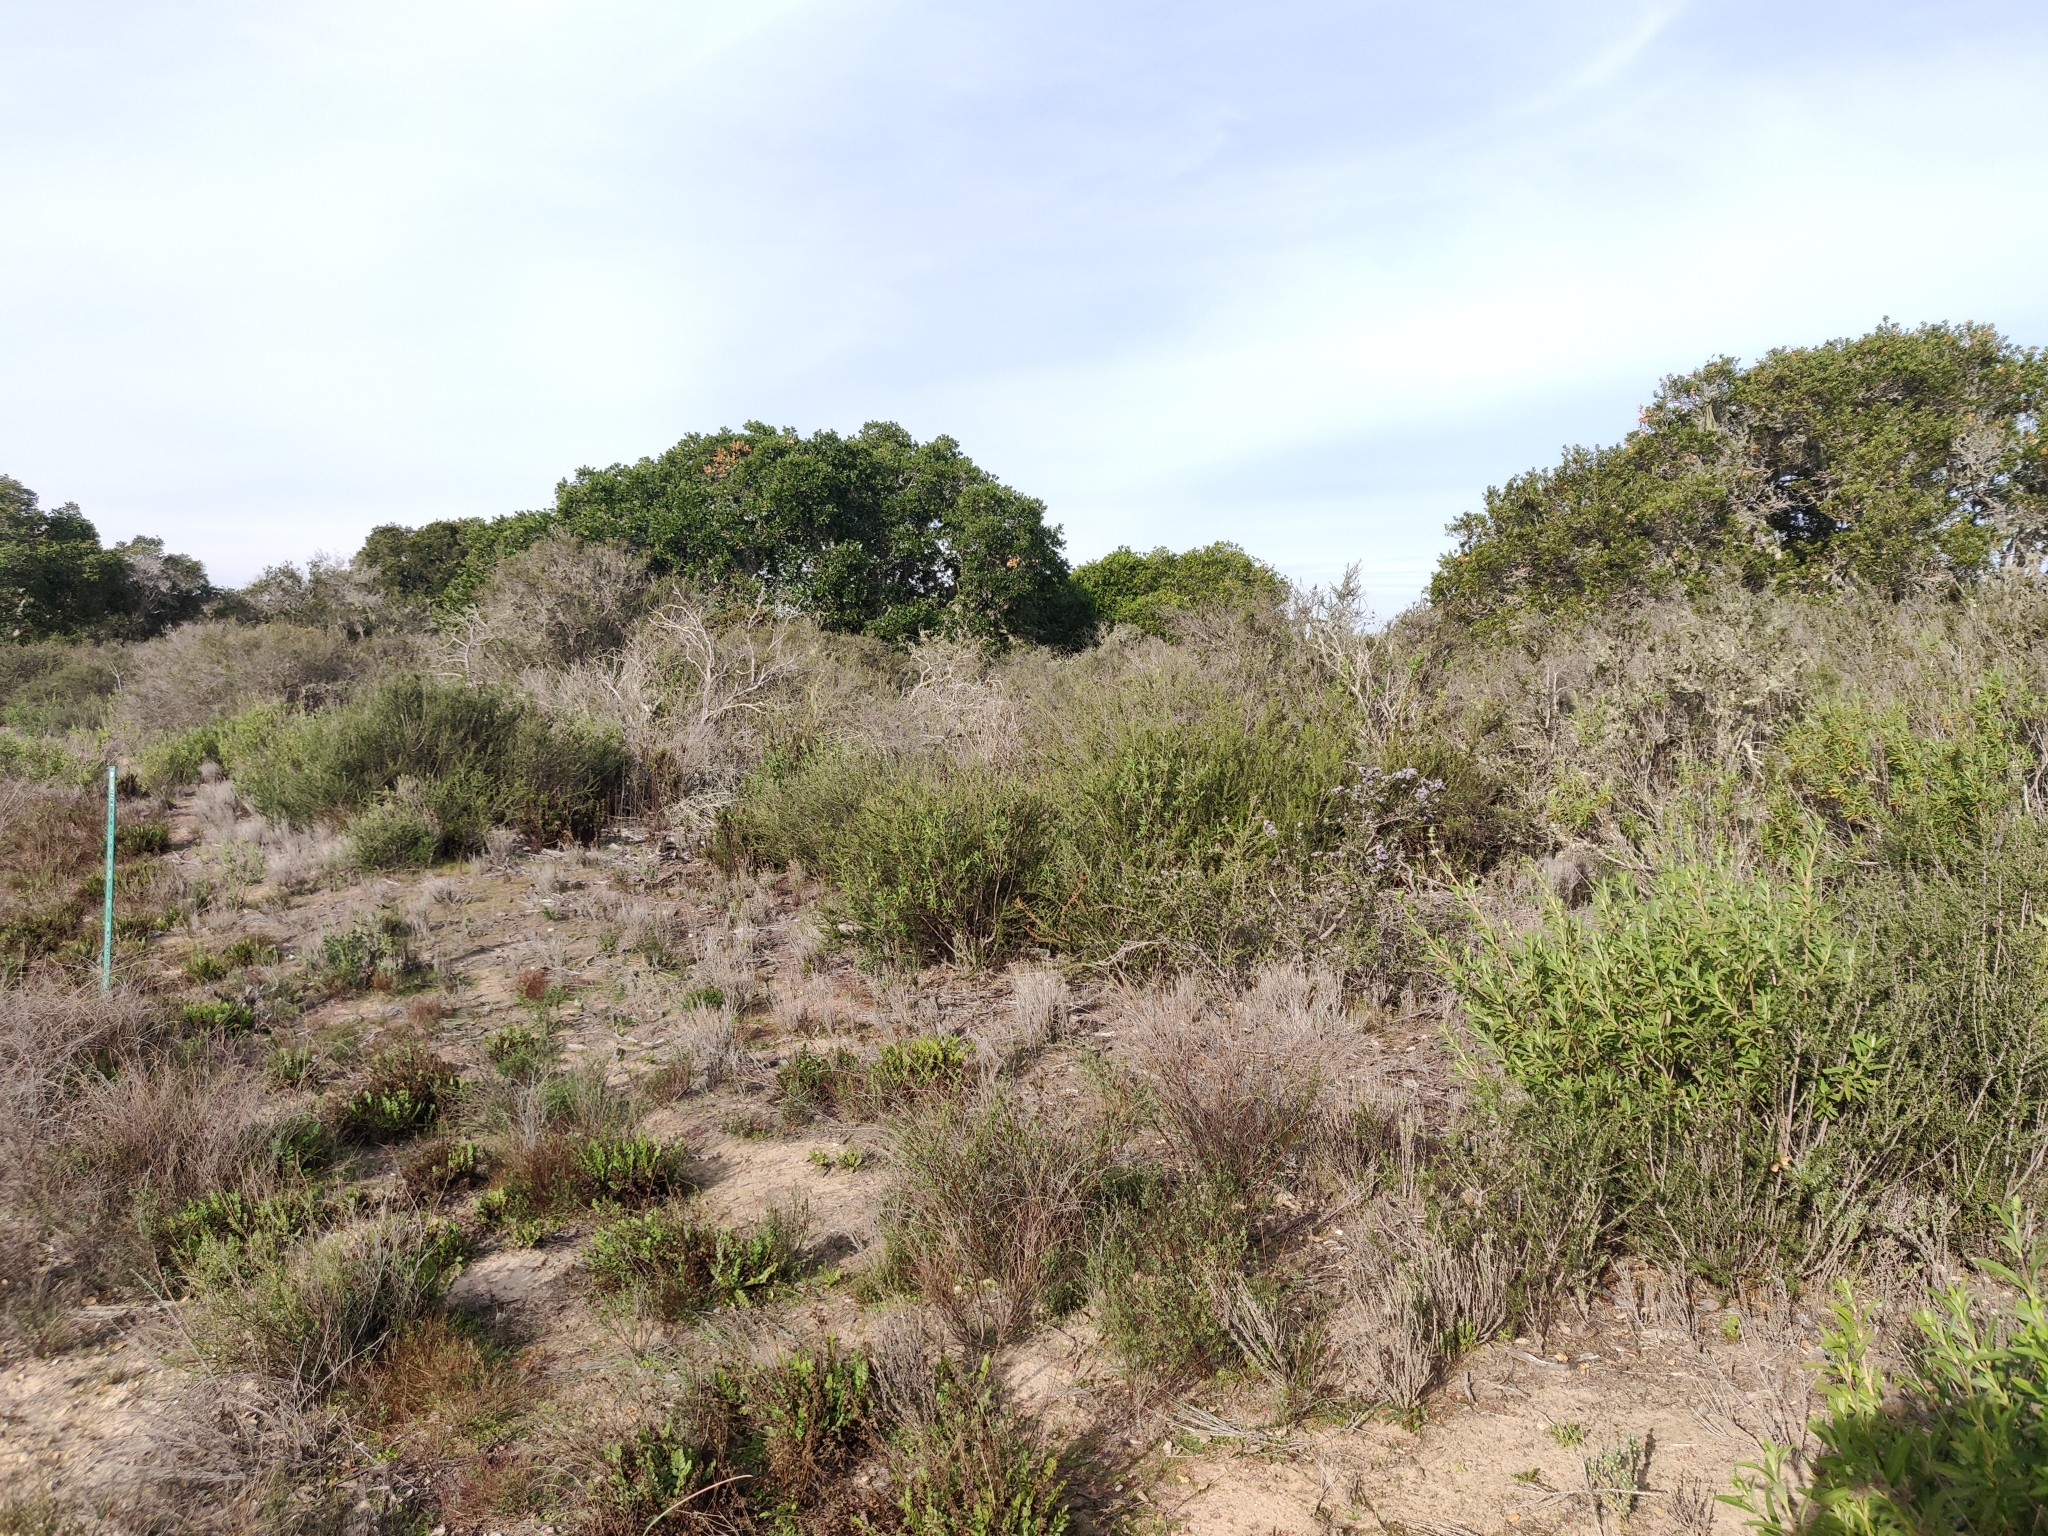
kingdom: Plantae
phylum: Tracheophyta
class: Magnoliopsida
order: Rosales
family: Rhamnaceae
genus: Ceanothus
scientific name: Ceanothus cuneatus
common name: Cuneate ceanothus
